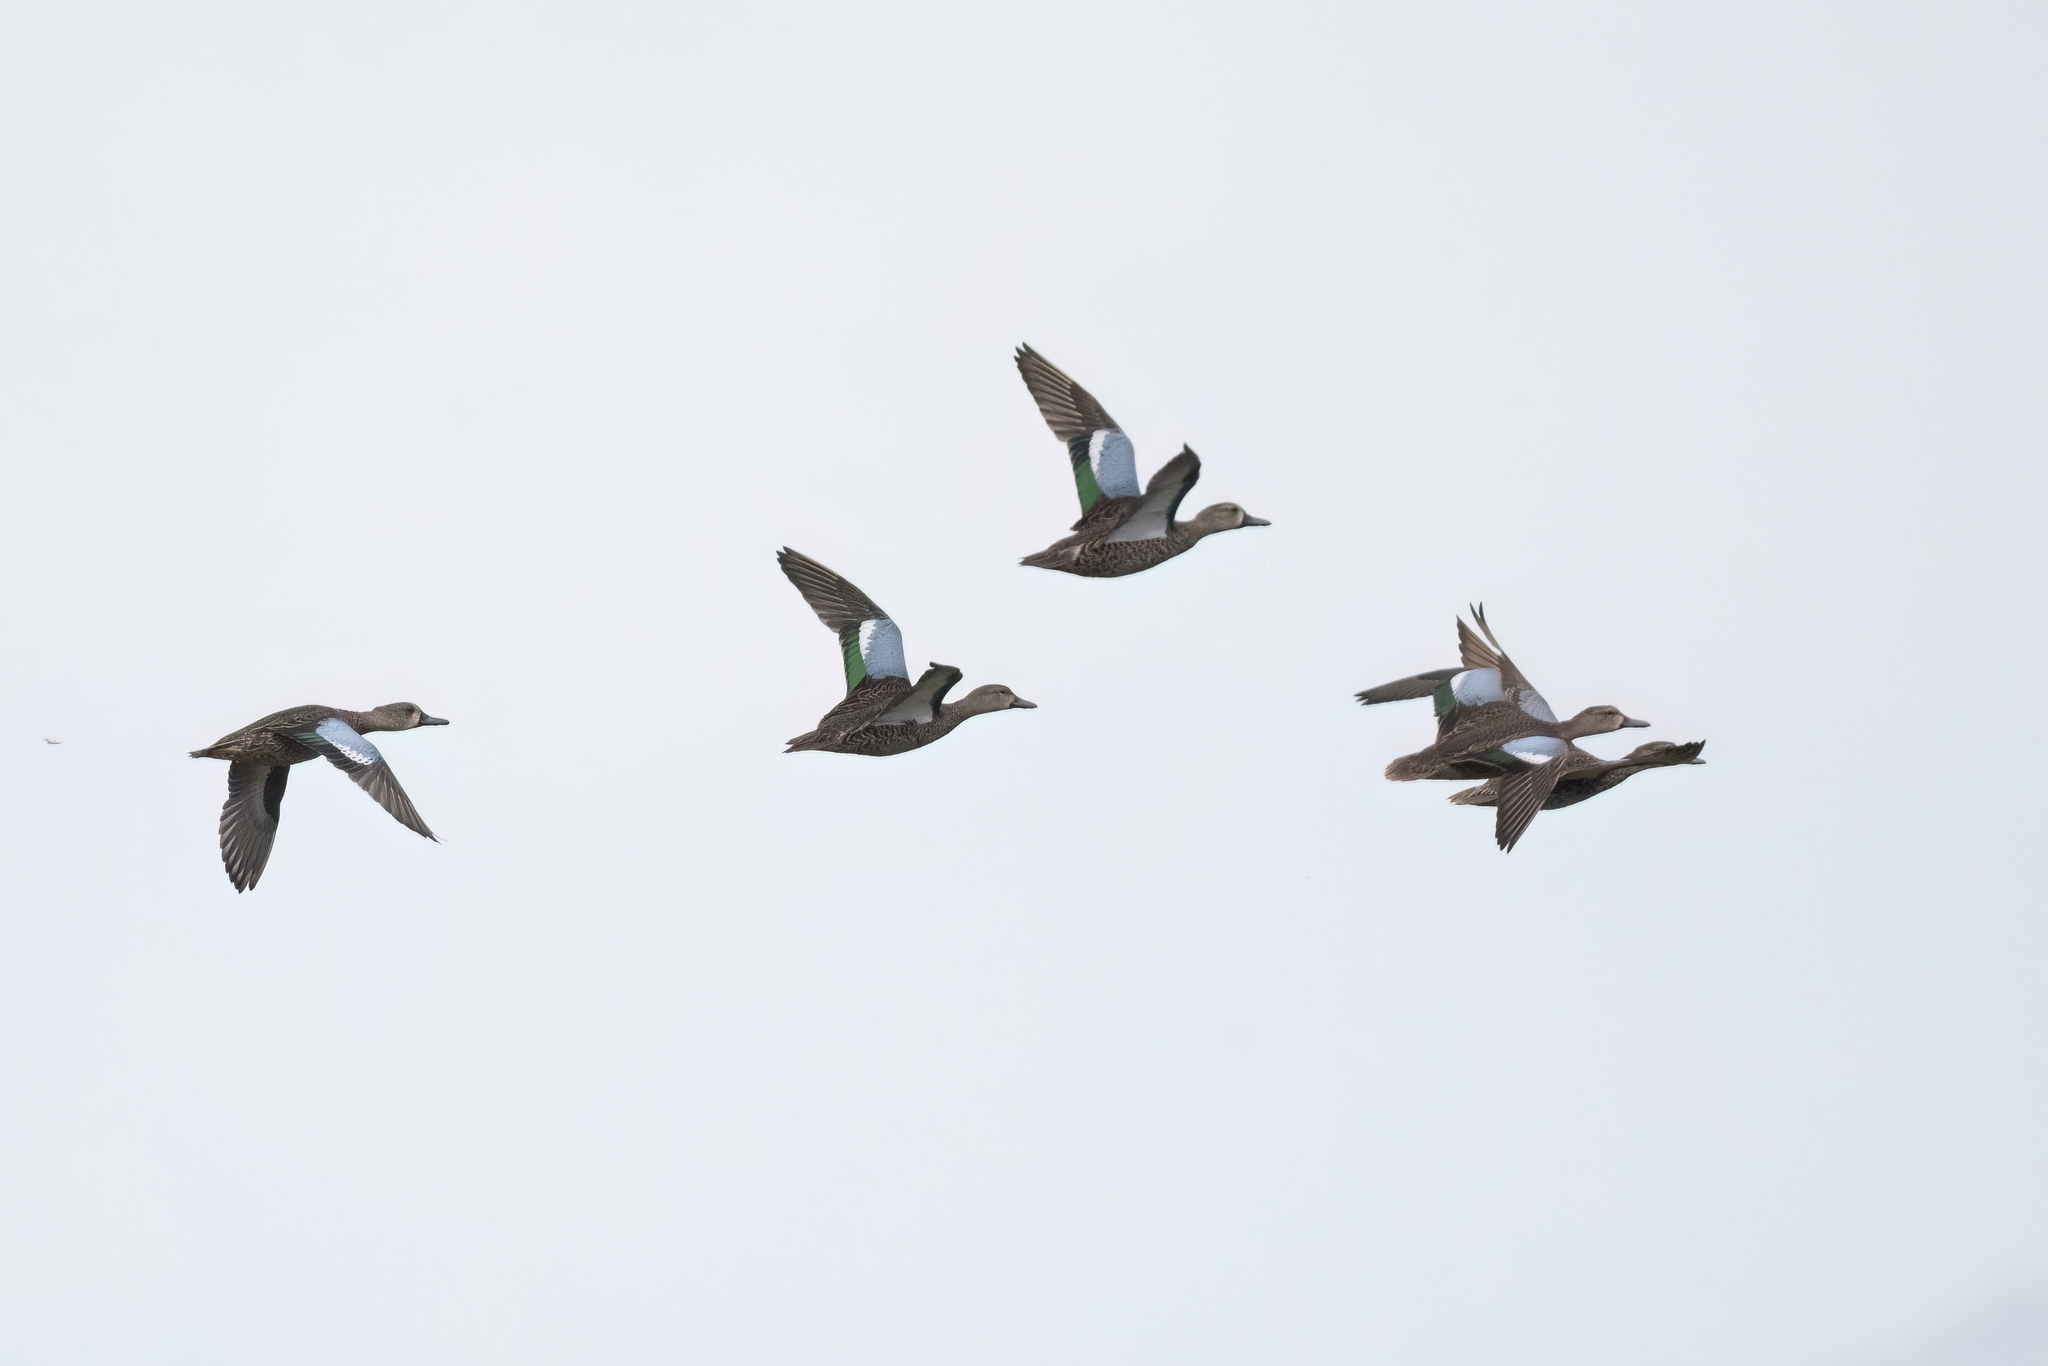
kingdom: Animalia
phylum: Chordata
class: Aves
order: Anseriformes
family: Anatidae
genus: Spatula
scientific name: Spatula discors
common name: Blue-winged teal
